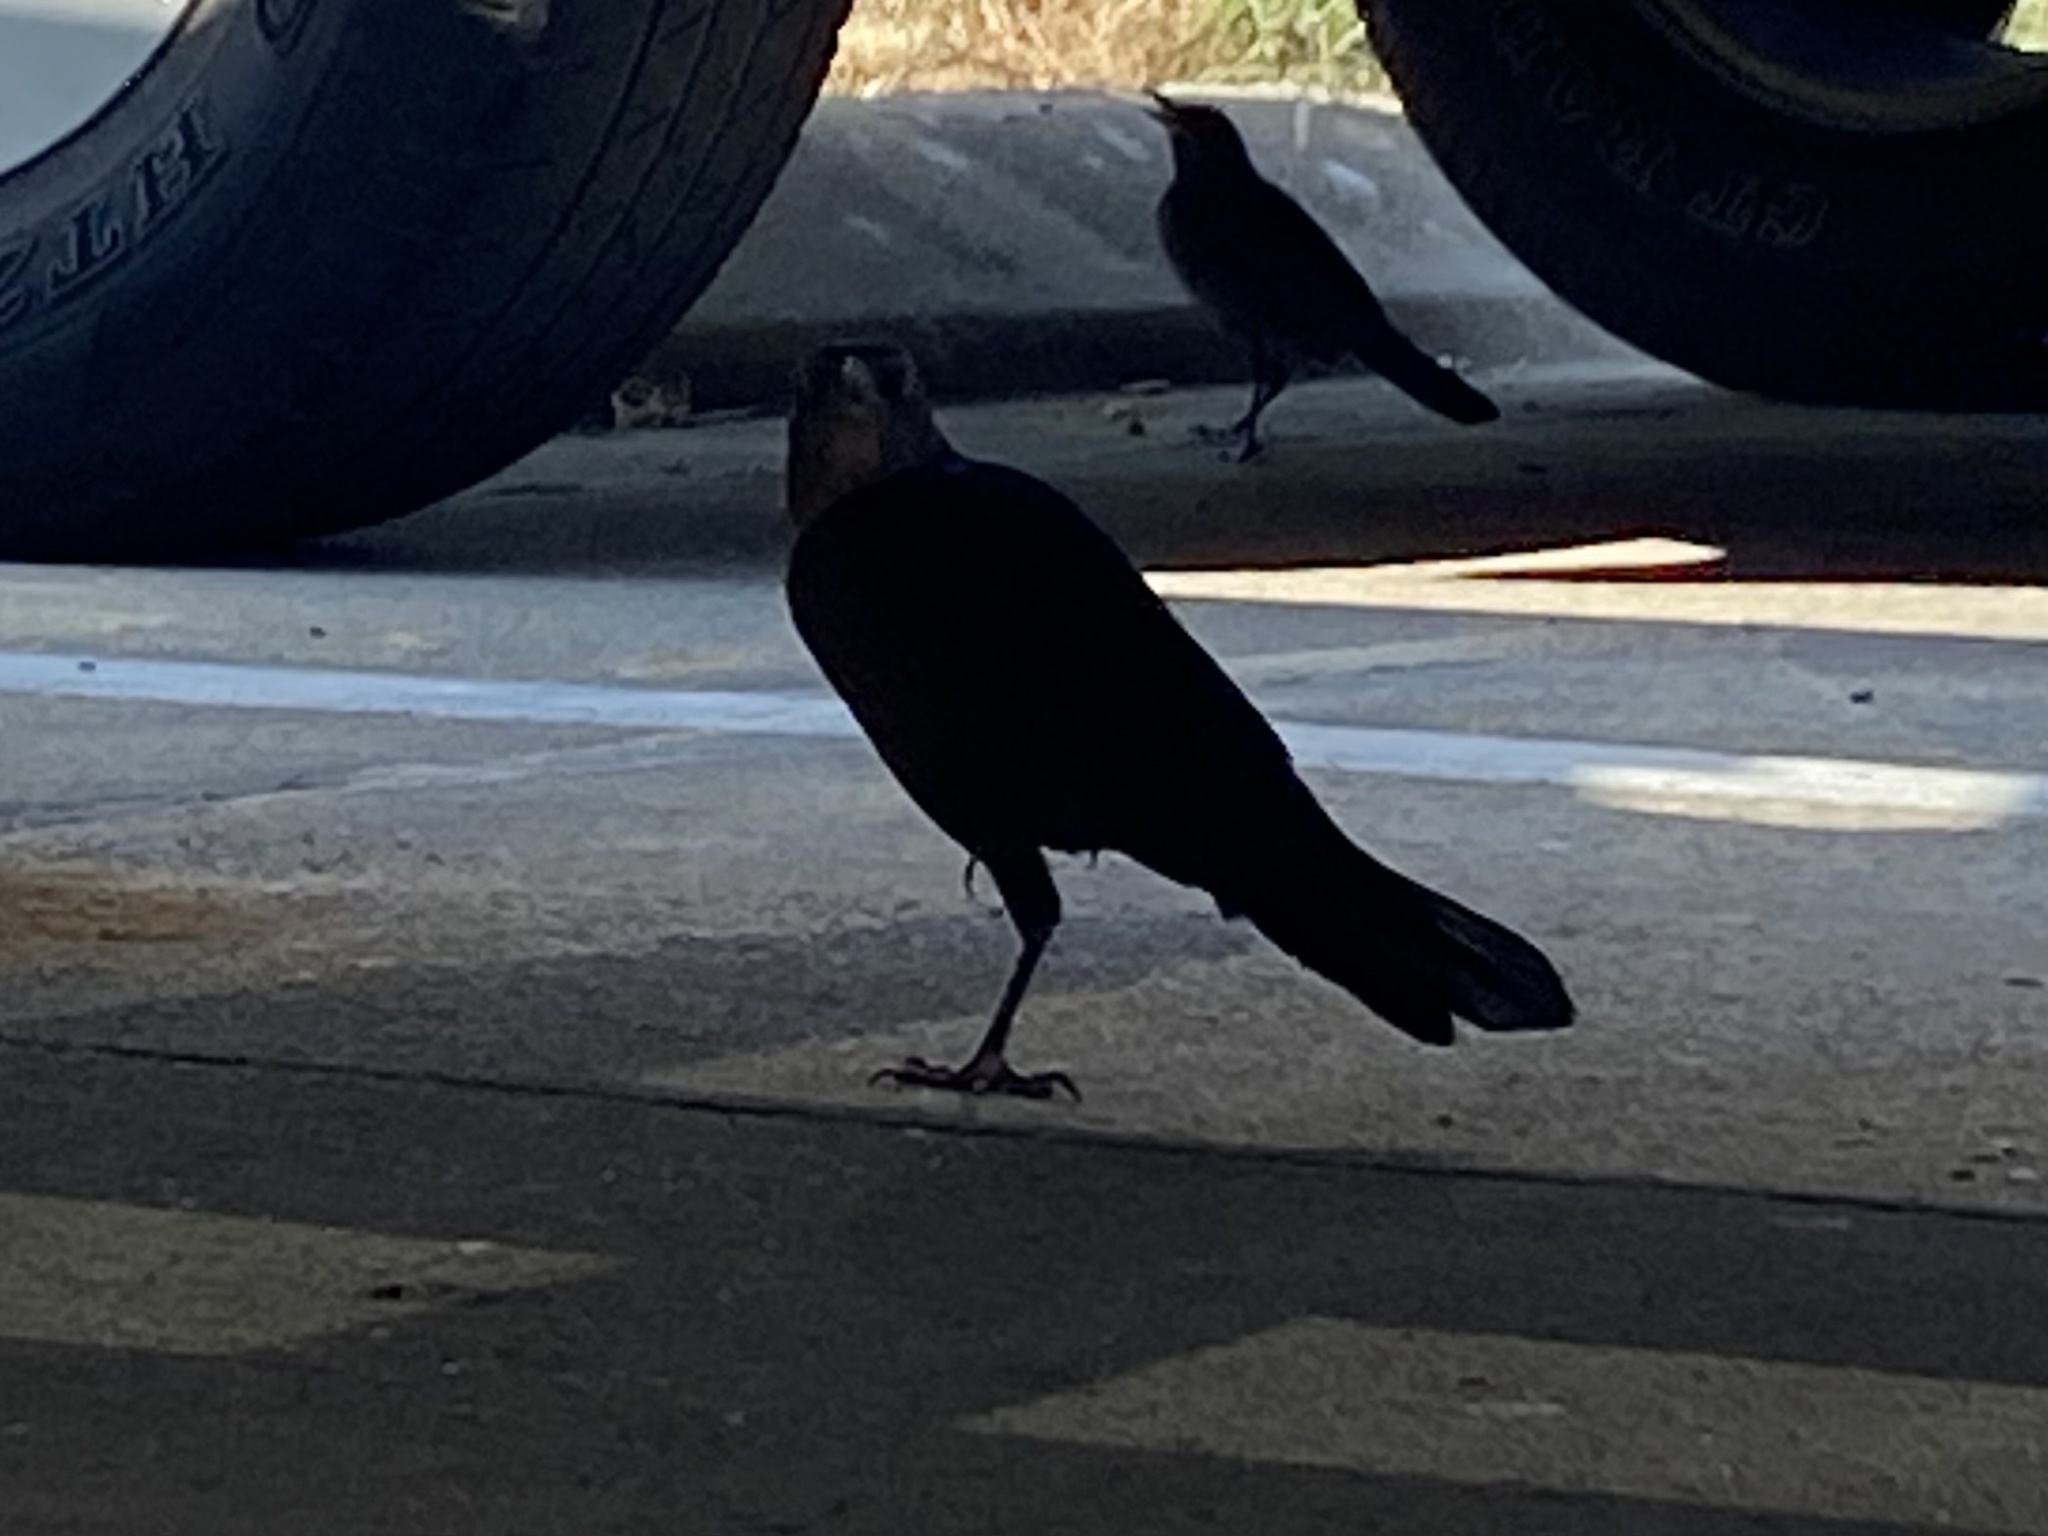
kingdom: Animalia
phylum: Chordata
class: Aves
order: Passeriformes
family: Icteridae
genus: Quiscalus
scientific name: Quiscalus mexicanus
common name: Great-tailed grackle
